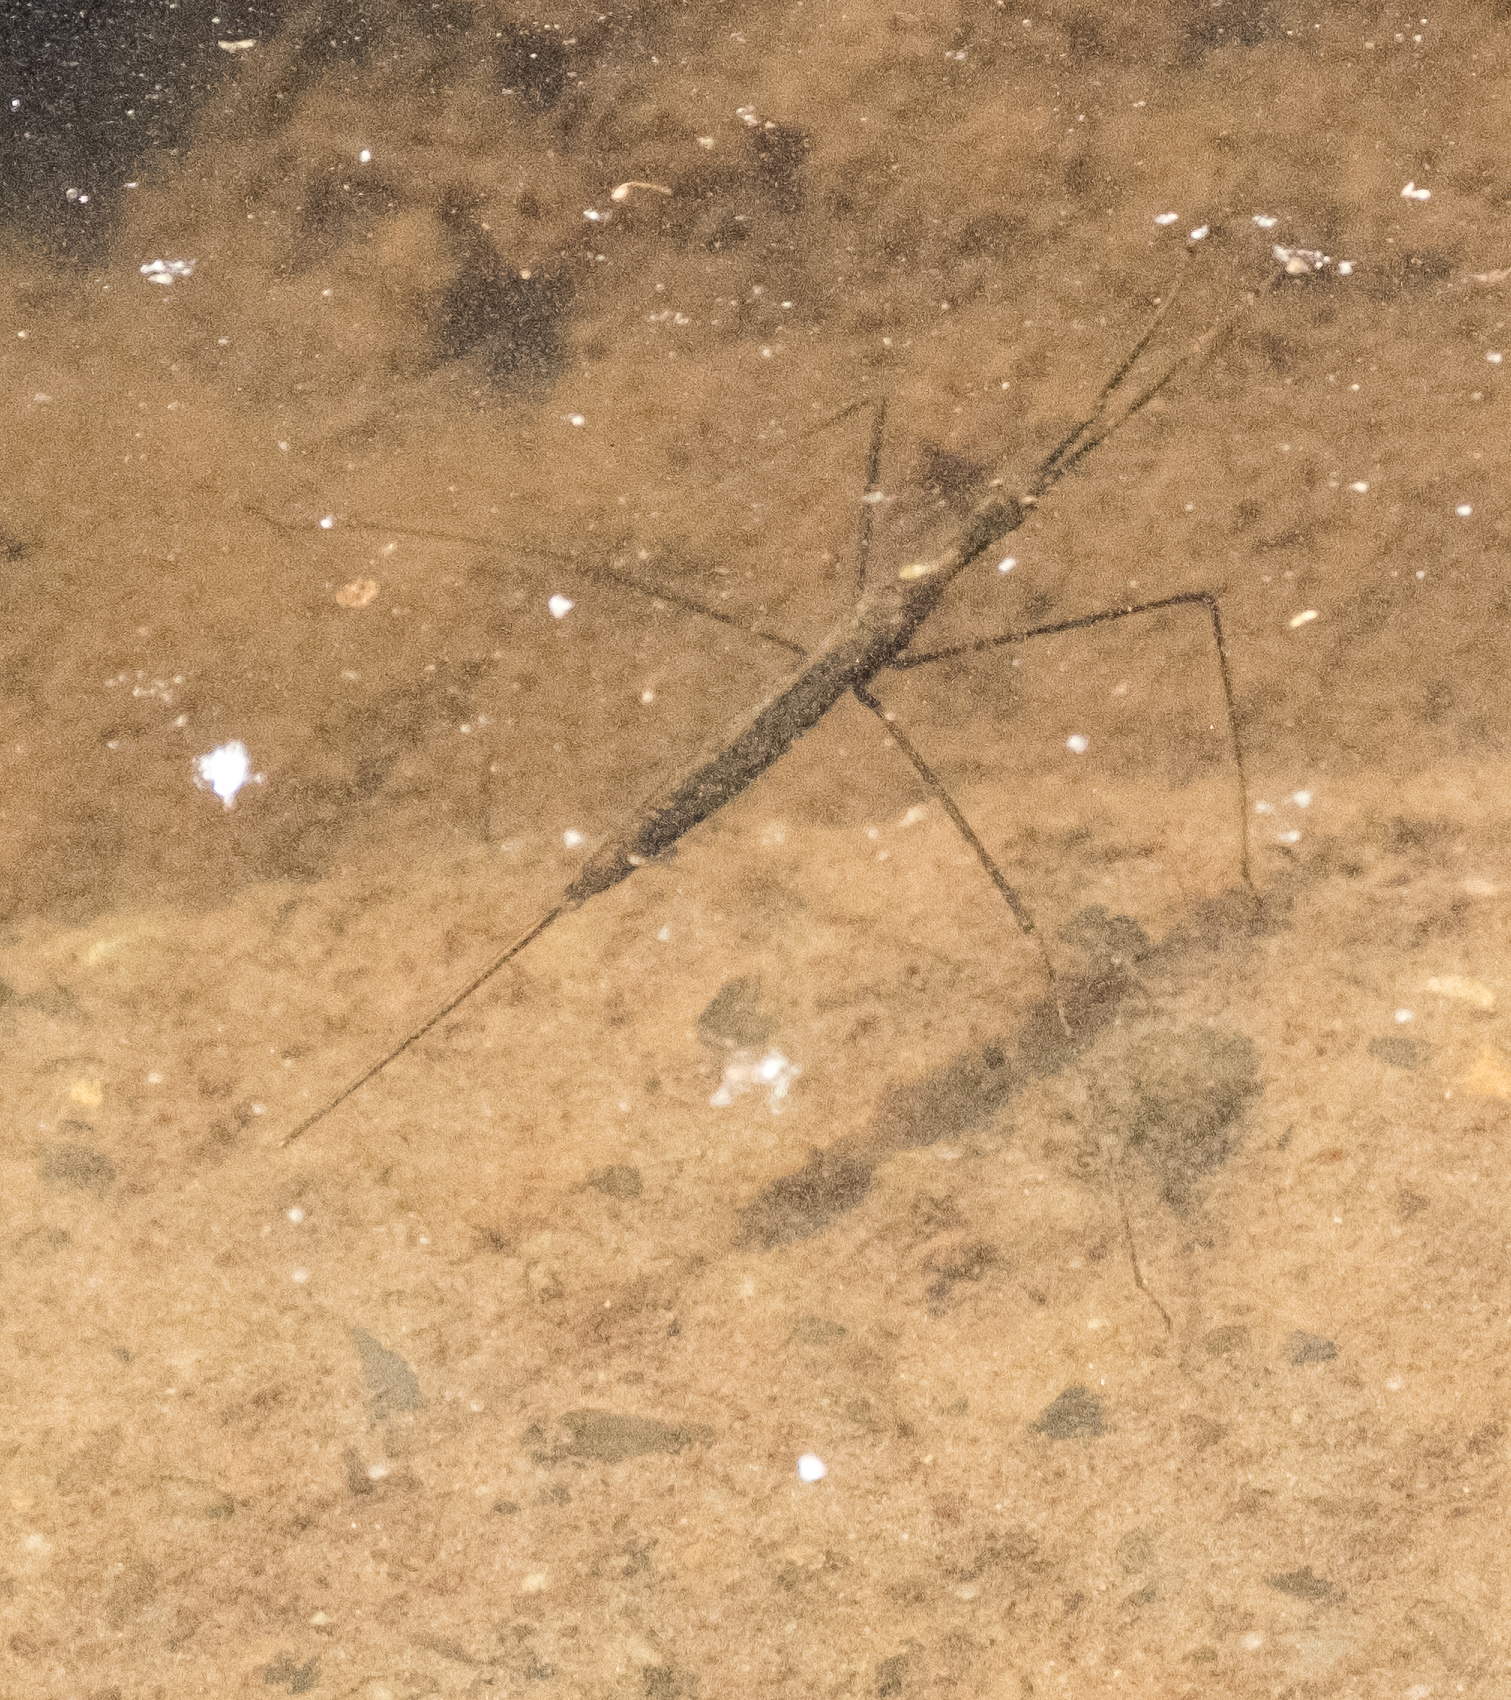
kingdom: Animalia
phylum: Arthropoda
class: Insecta
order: Hemiptera
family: Nepidae
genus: Ranatra
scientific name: Ranatra
